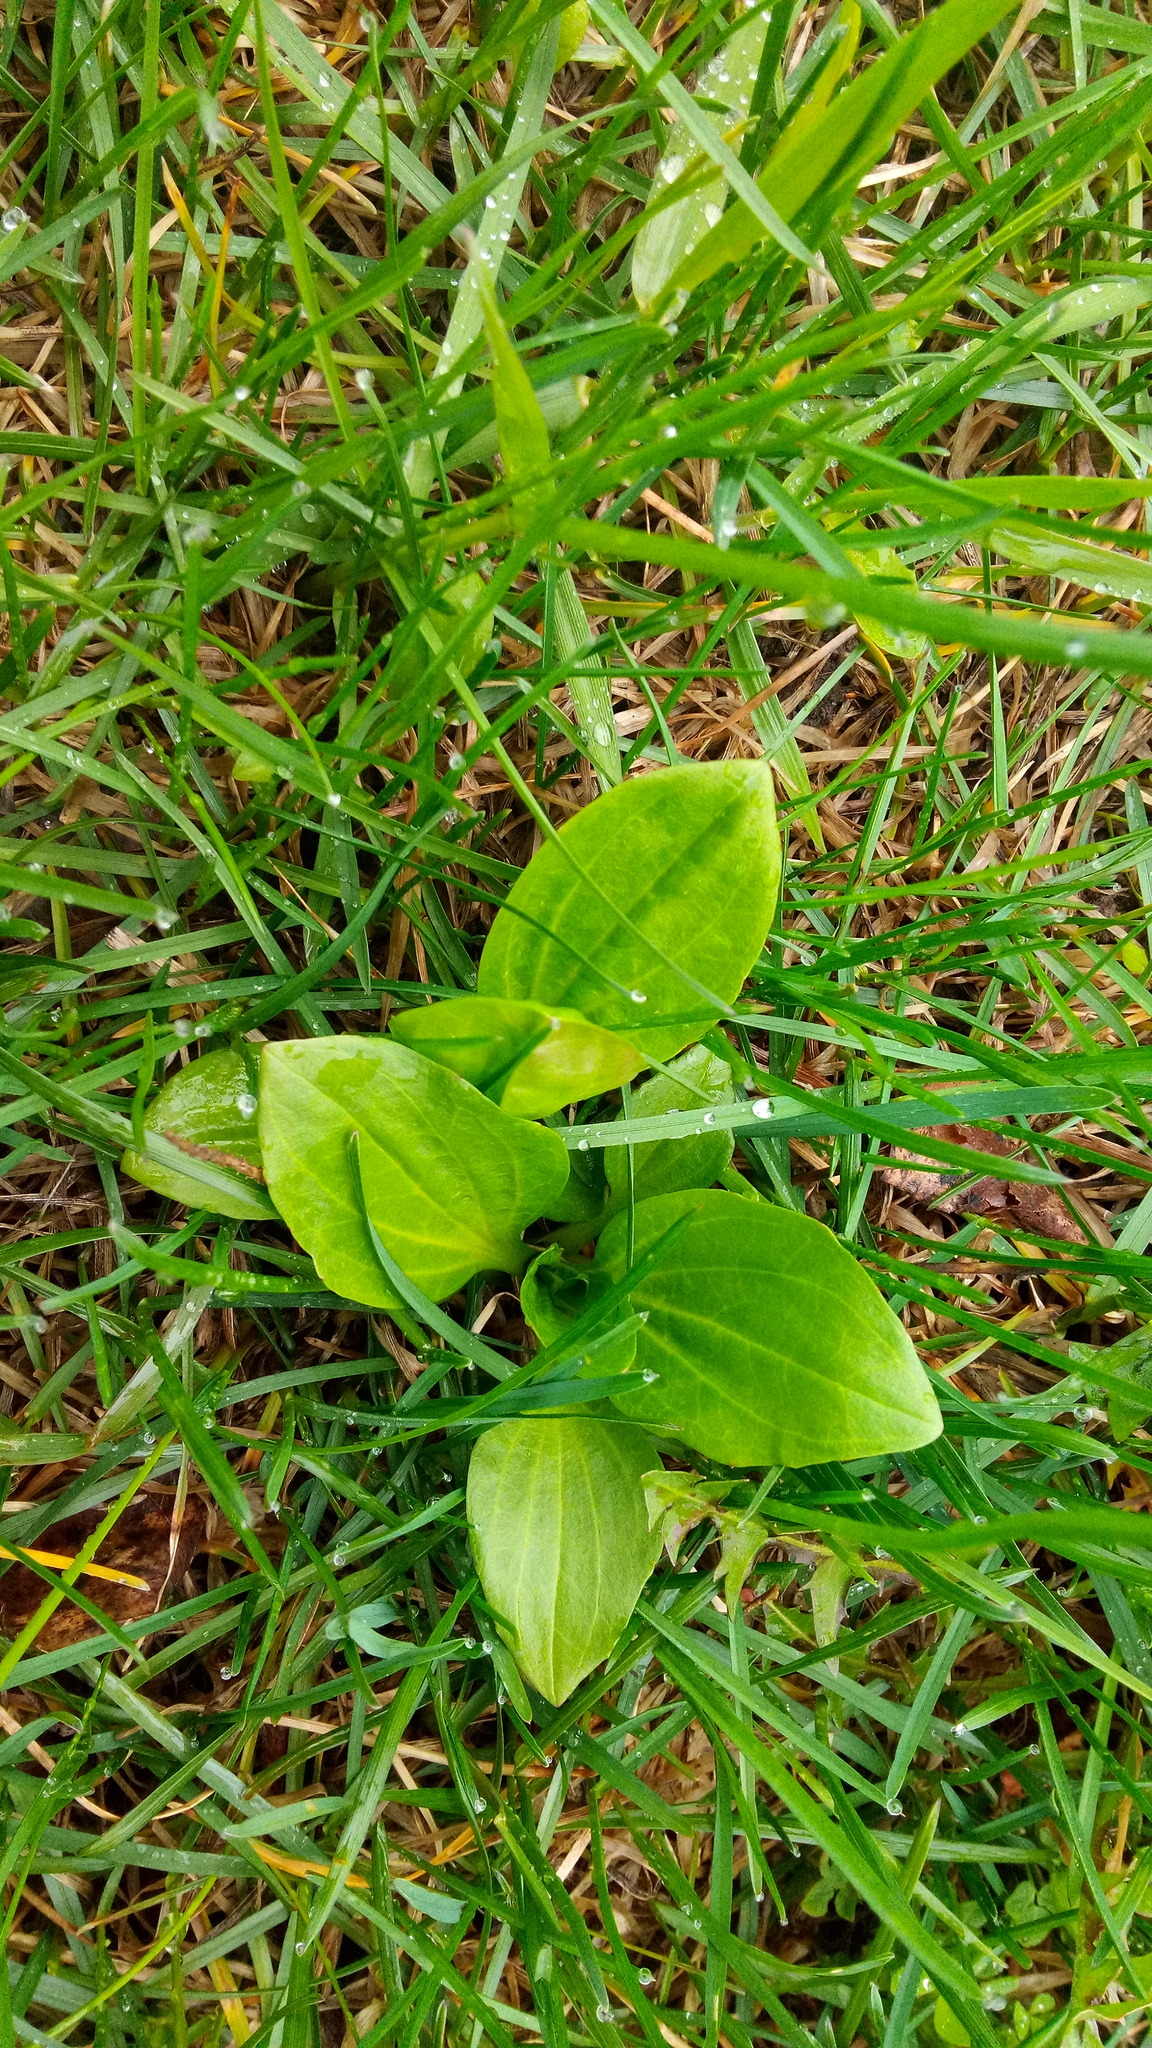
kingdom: Plantae
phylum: Tracheophyta
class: Magnoliopsida
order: Lamiales
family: Plantaginaceae
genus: Plantago
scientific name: Plantago major
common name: Common plantain
